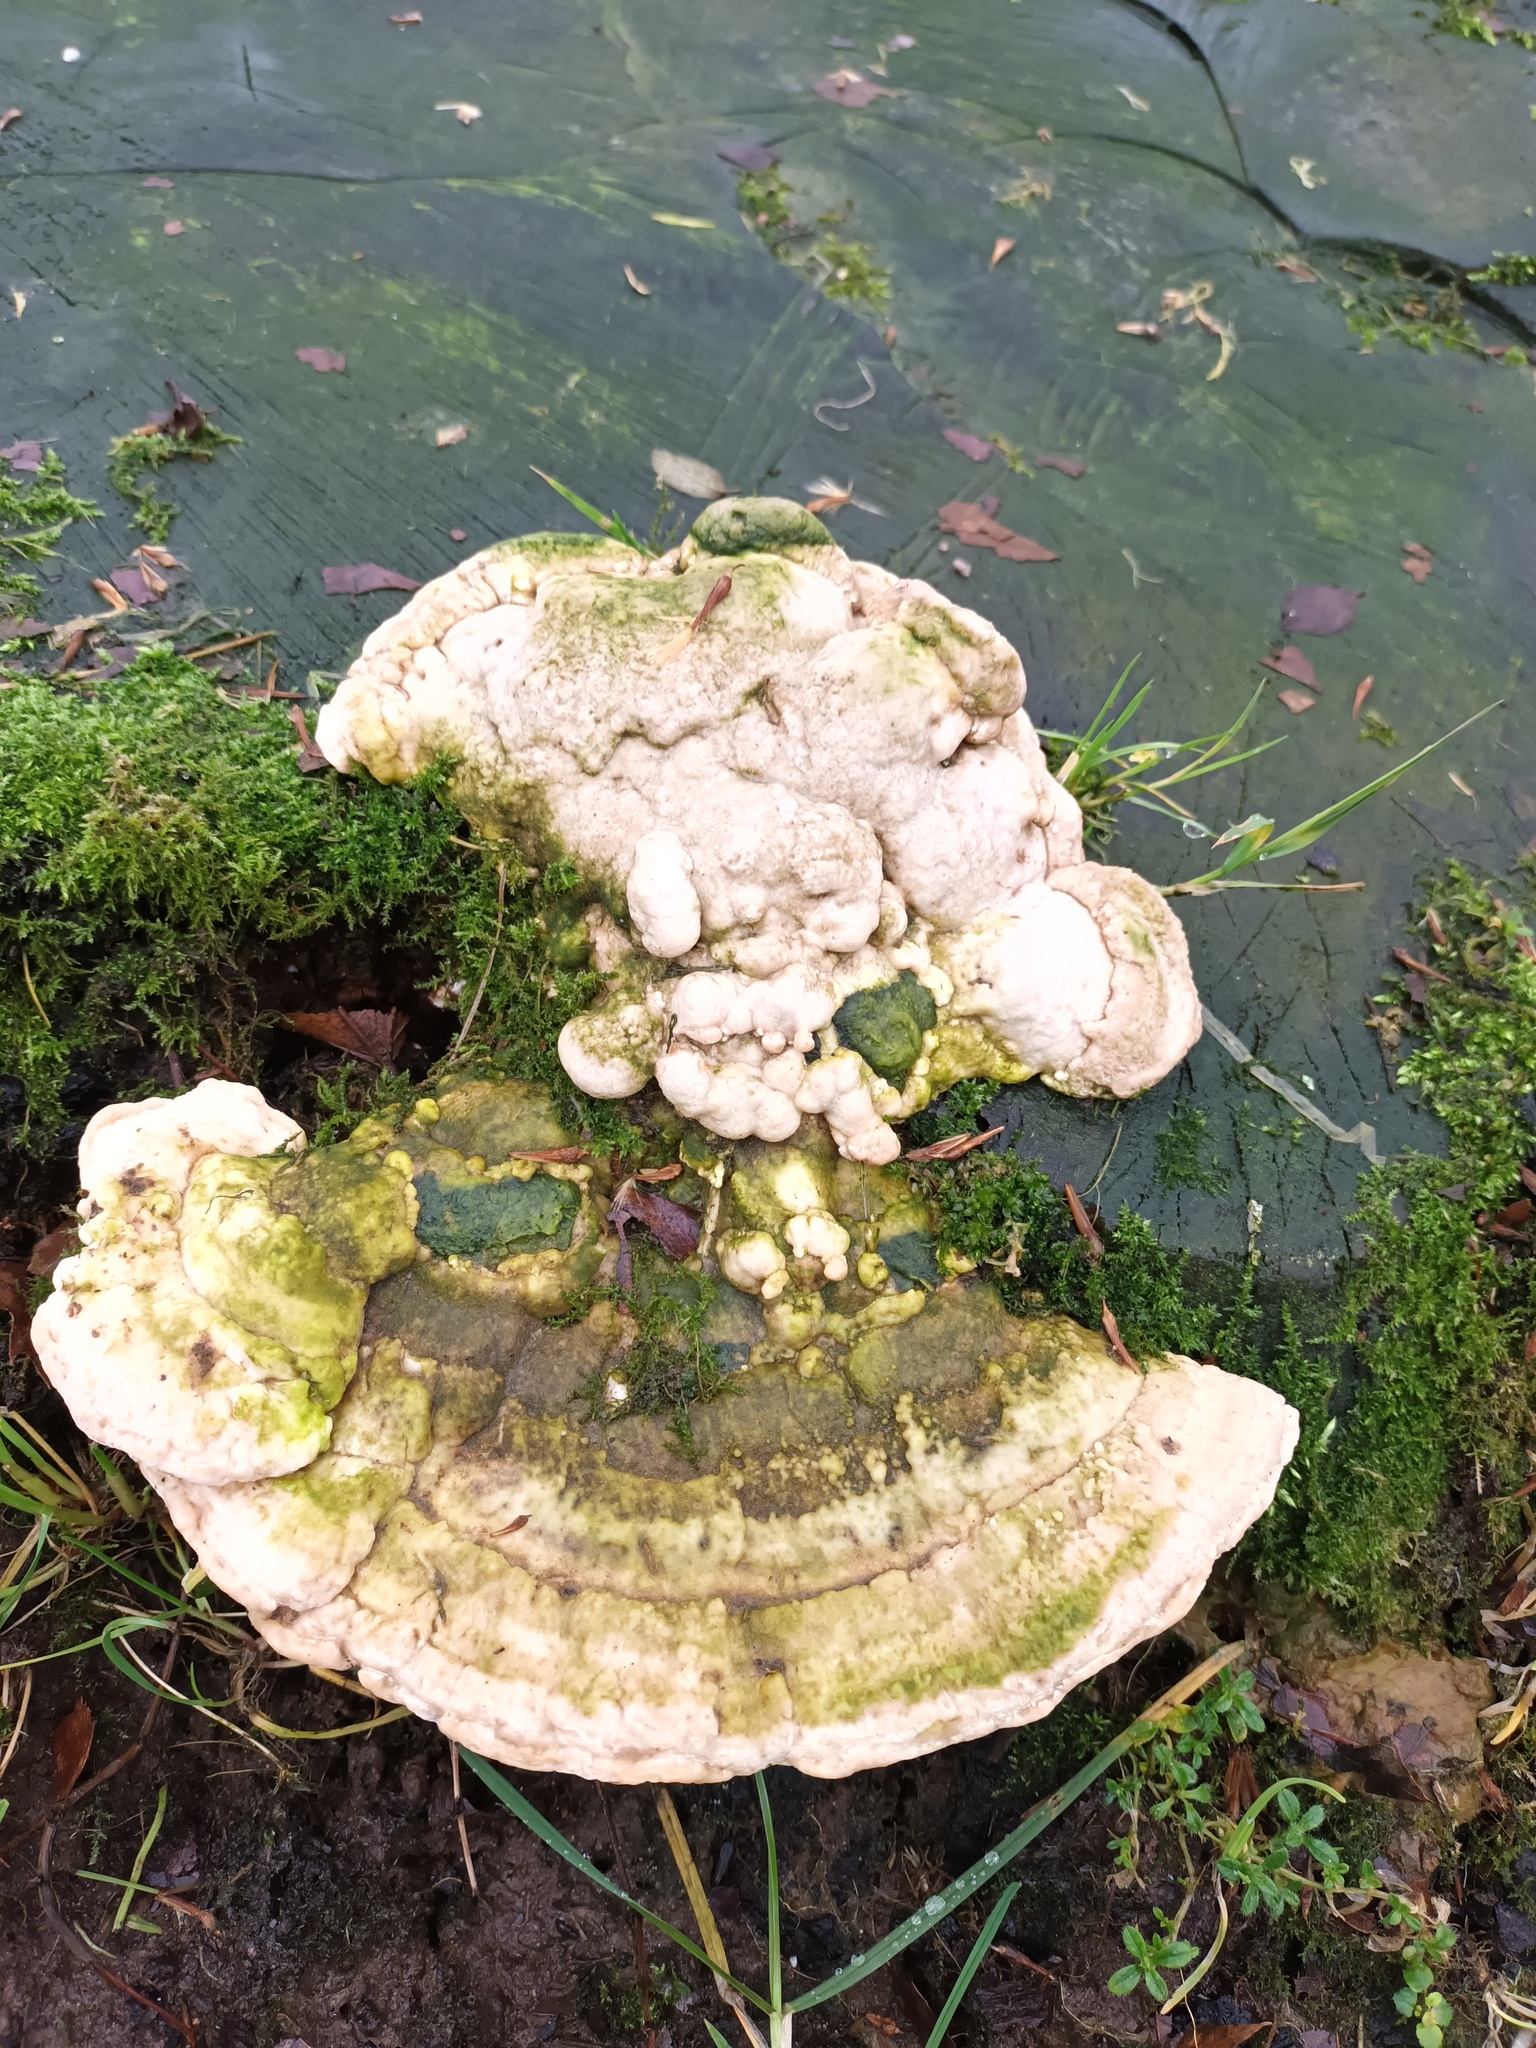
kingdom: Fungi
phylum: Basidiomycota
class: Agaricomycetes
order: Polyporales
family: Polyporaceae
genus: Trametes
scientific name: Trametes gibbosa
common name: Lumpy bracket
